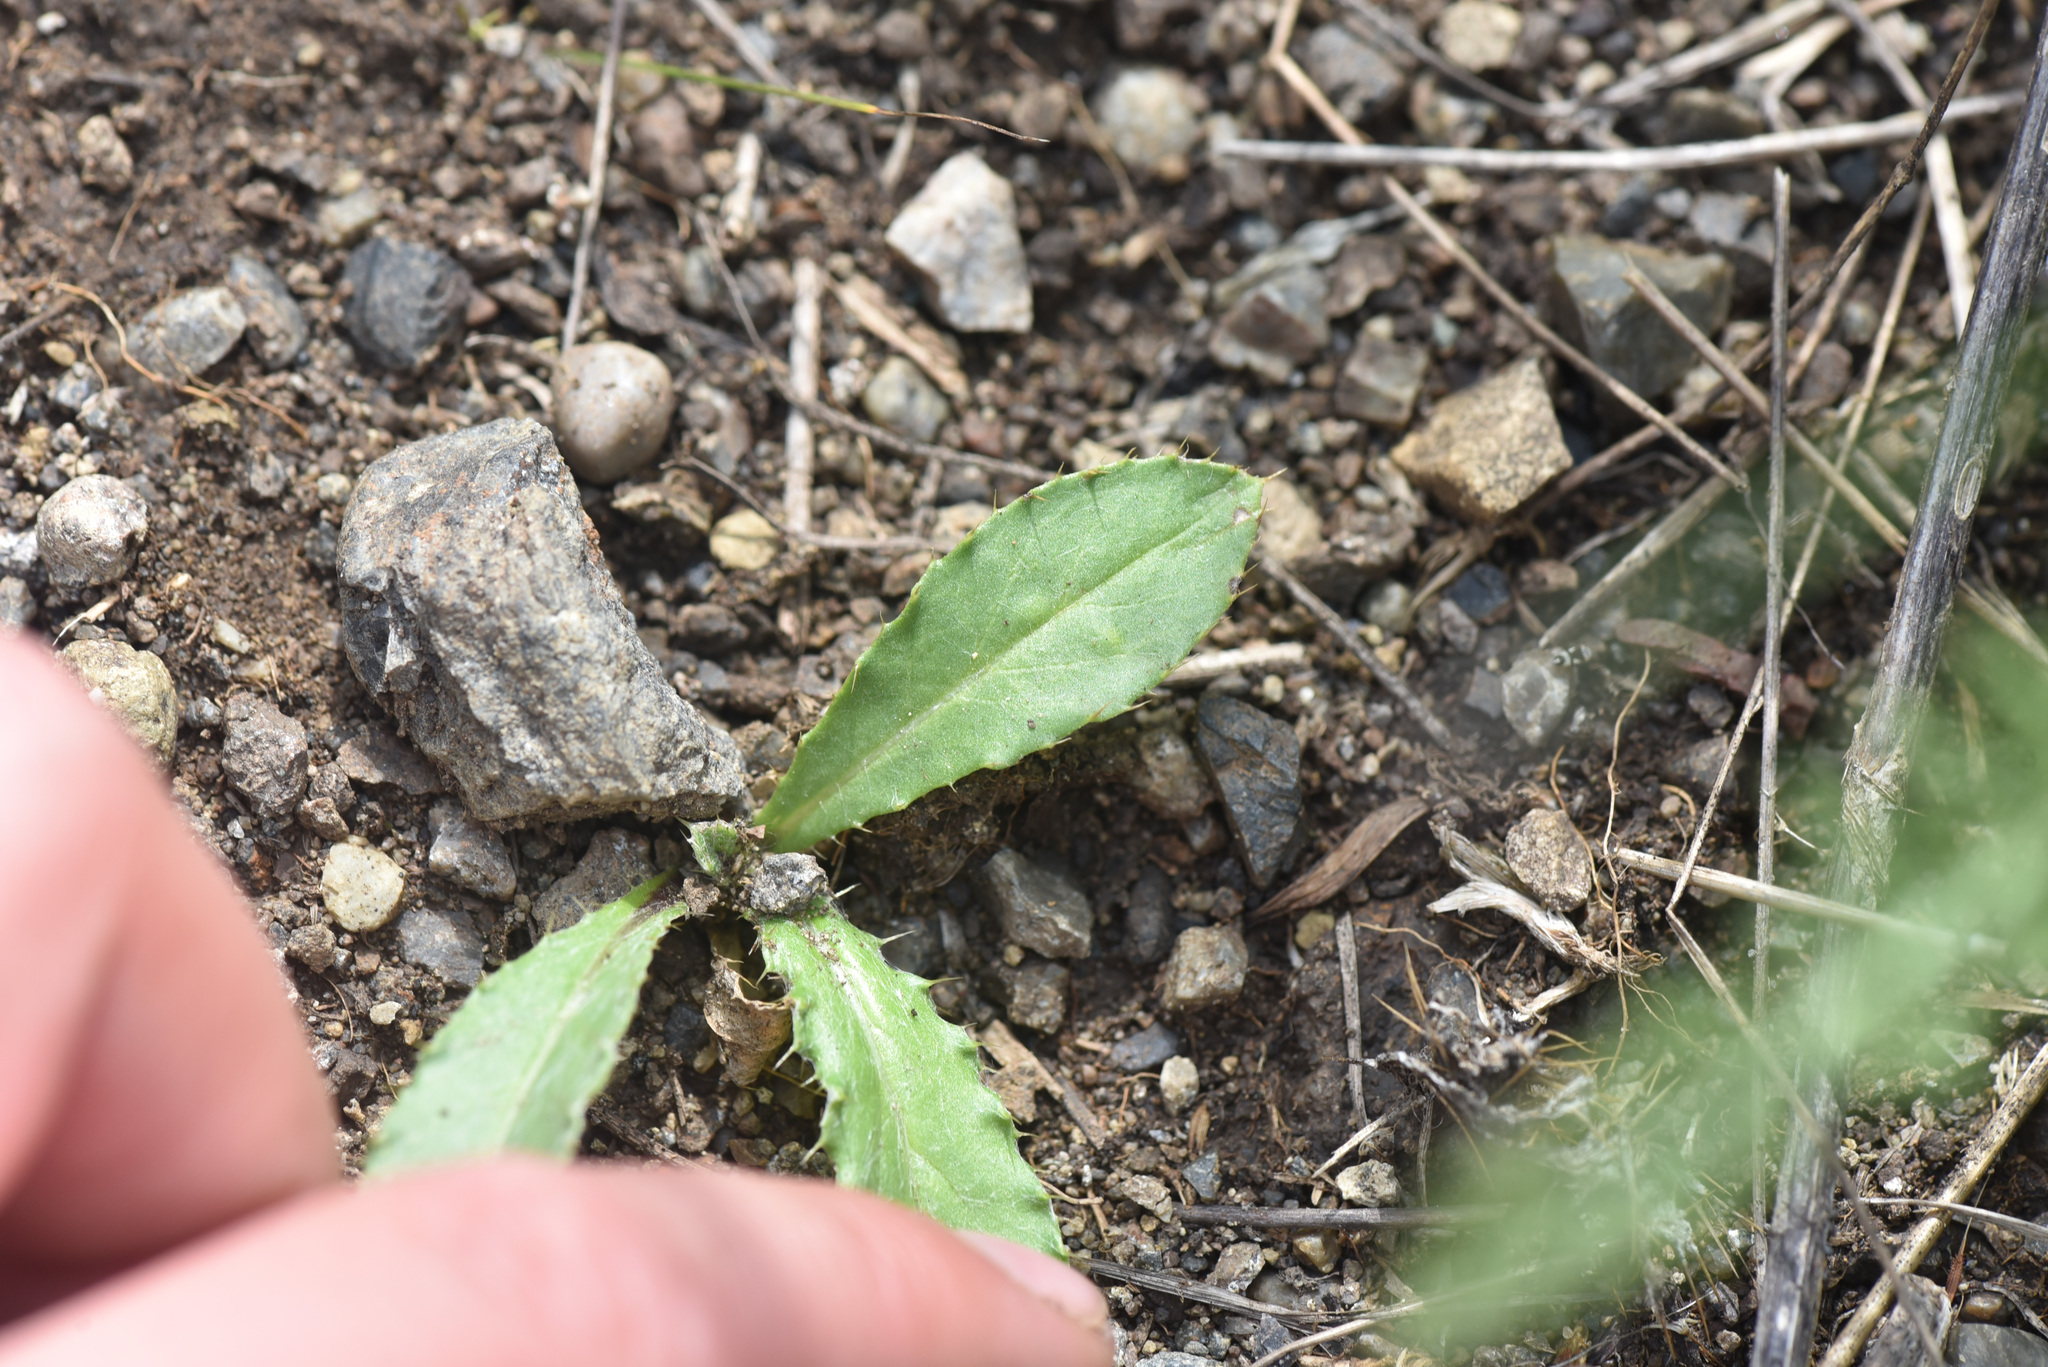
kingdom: Animalia
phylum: Arthropoda
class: Insecta
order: Odonata
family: Lestidae
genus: Lestes
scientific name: Lestes dryas
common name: Scarce emerald damselfly
